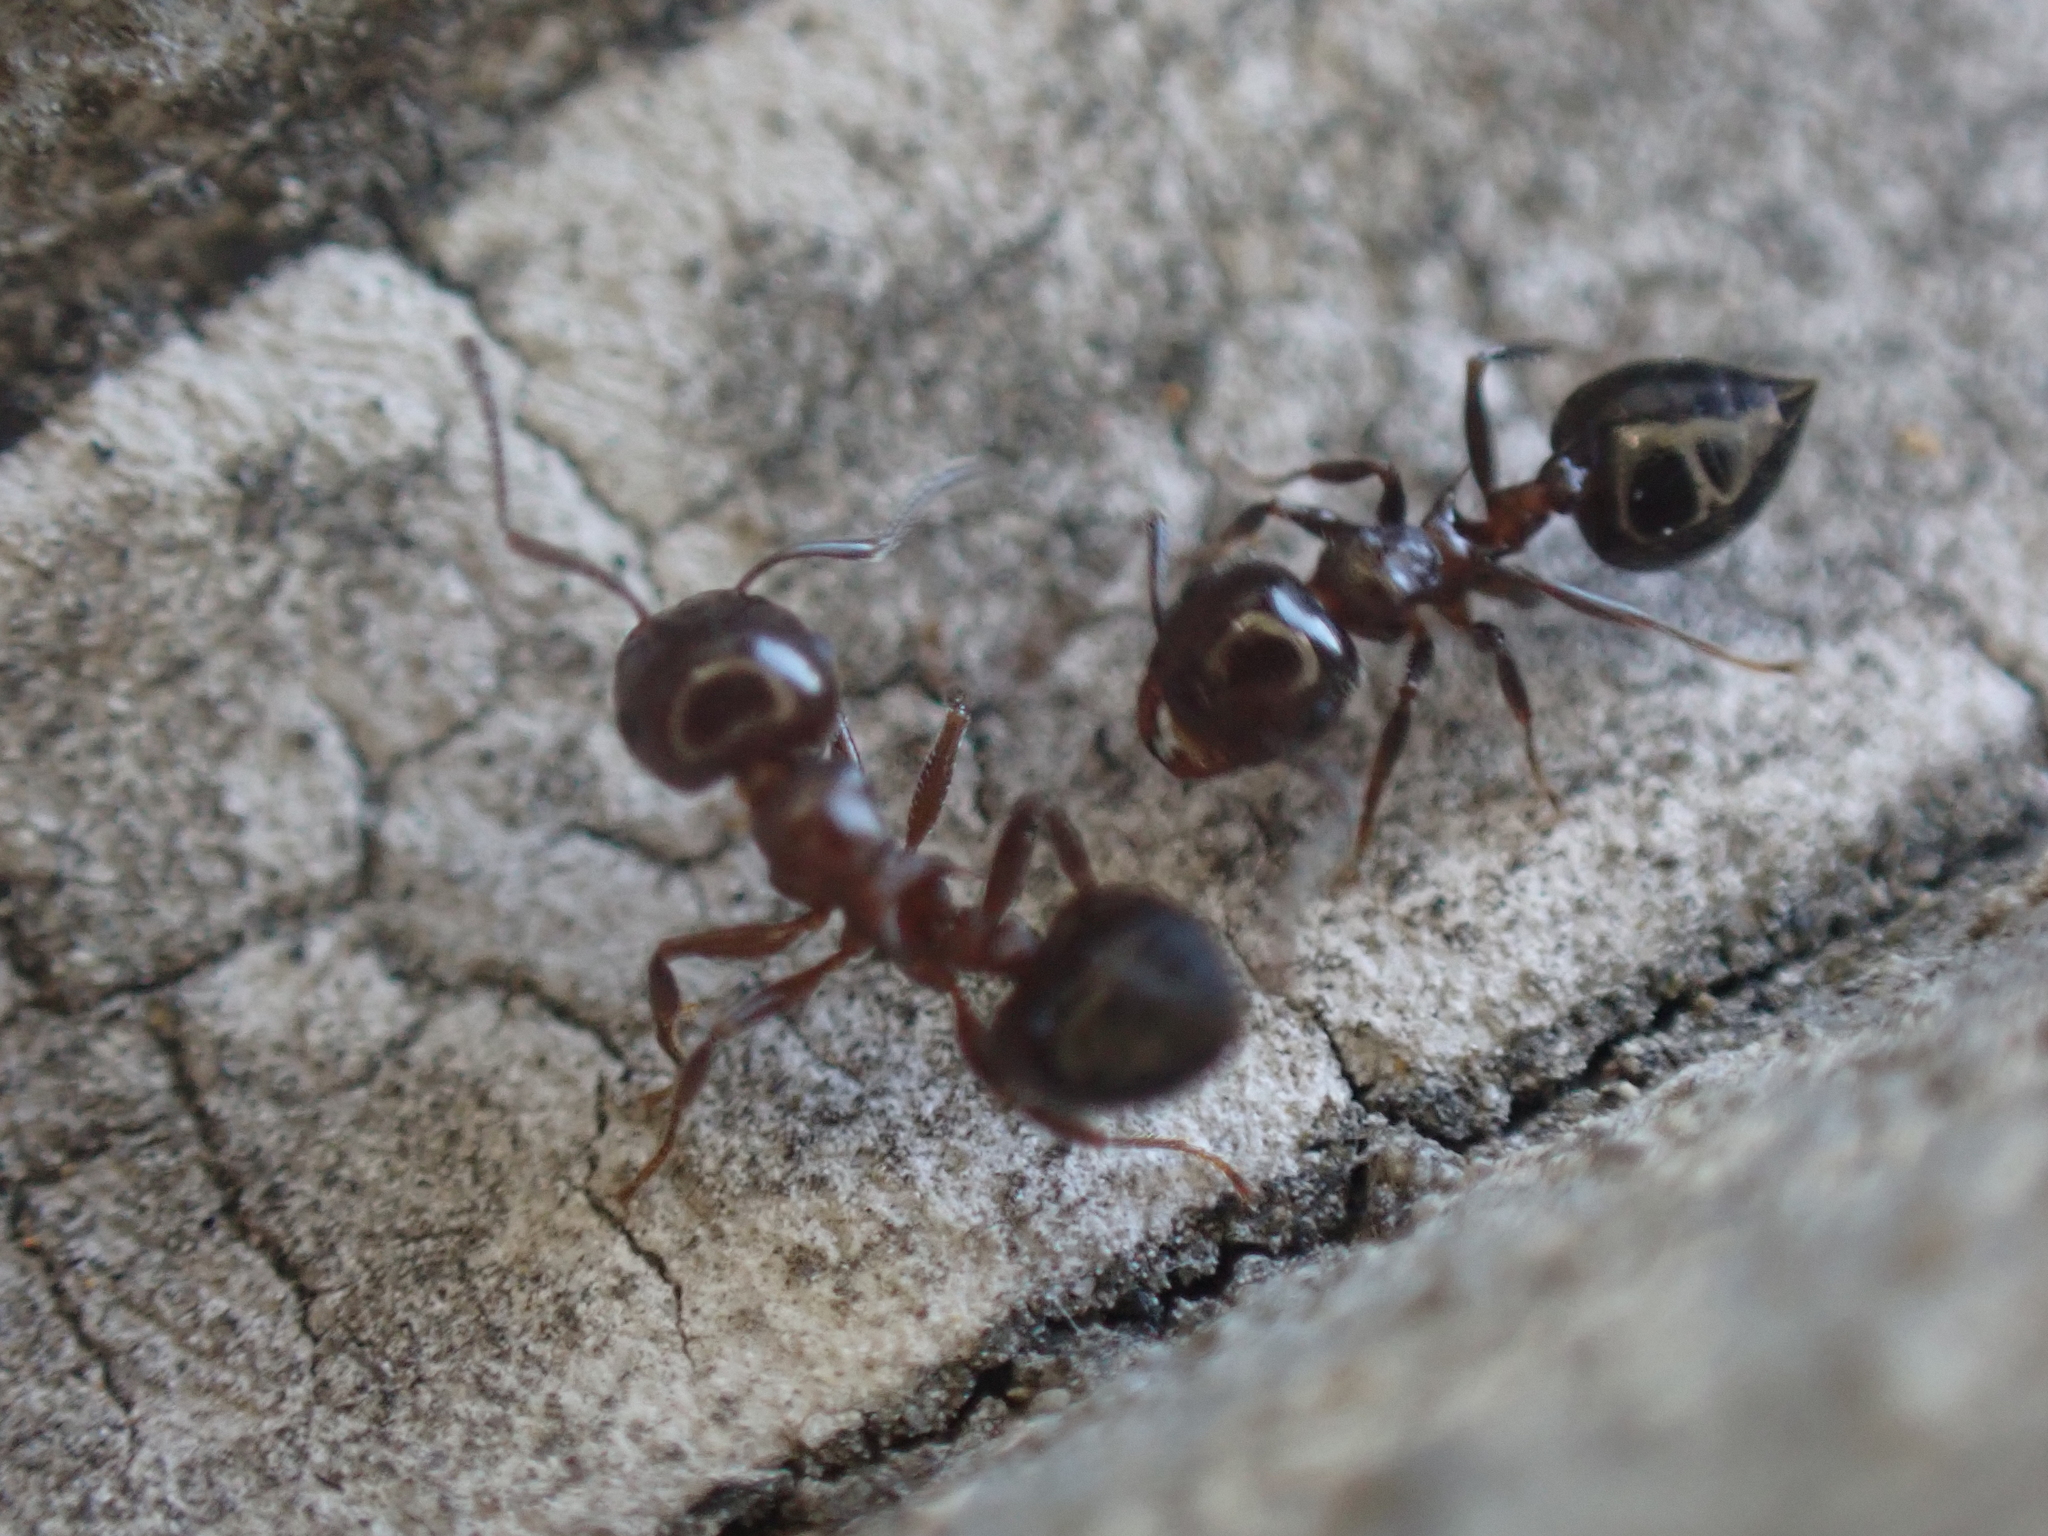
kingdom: Animalia
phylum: Arthropoda
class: Insecta
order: Hymenoptera
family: Formicidae
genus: Crematogaster
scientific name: Crematogaster pilosa
